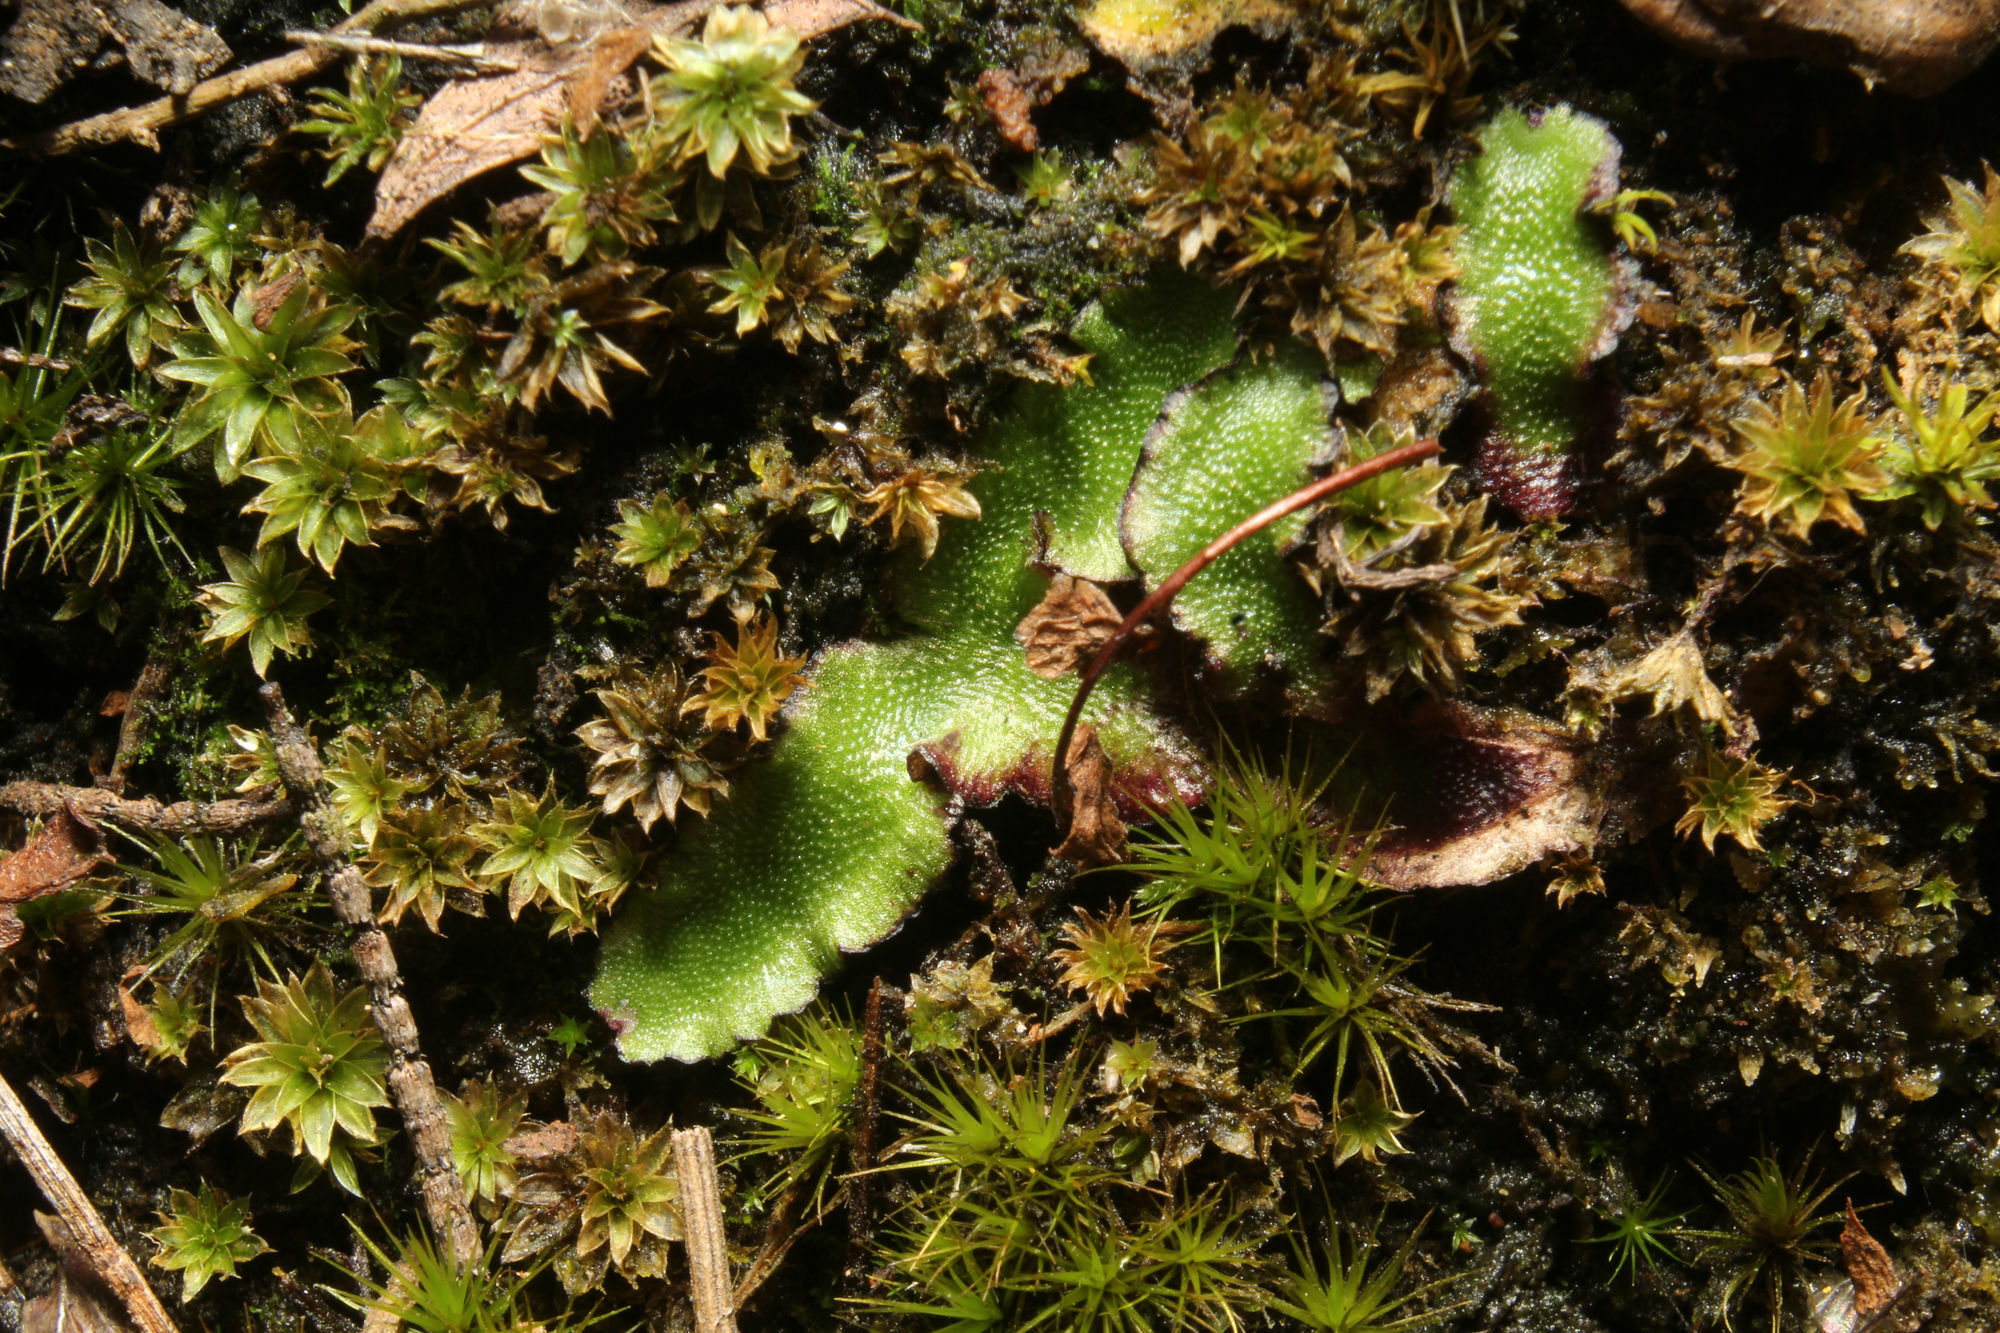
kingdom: Plantae
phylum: Marchantiophyta
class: Marchantiopsida
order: Marchantiales
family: Aytoniaceae
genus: Asterella
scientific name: Asterella drummondii
